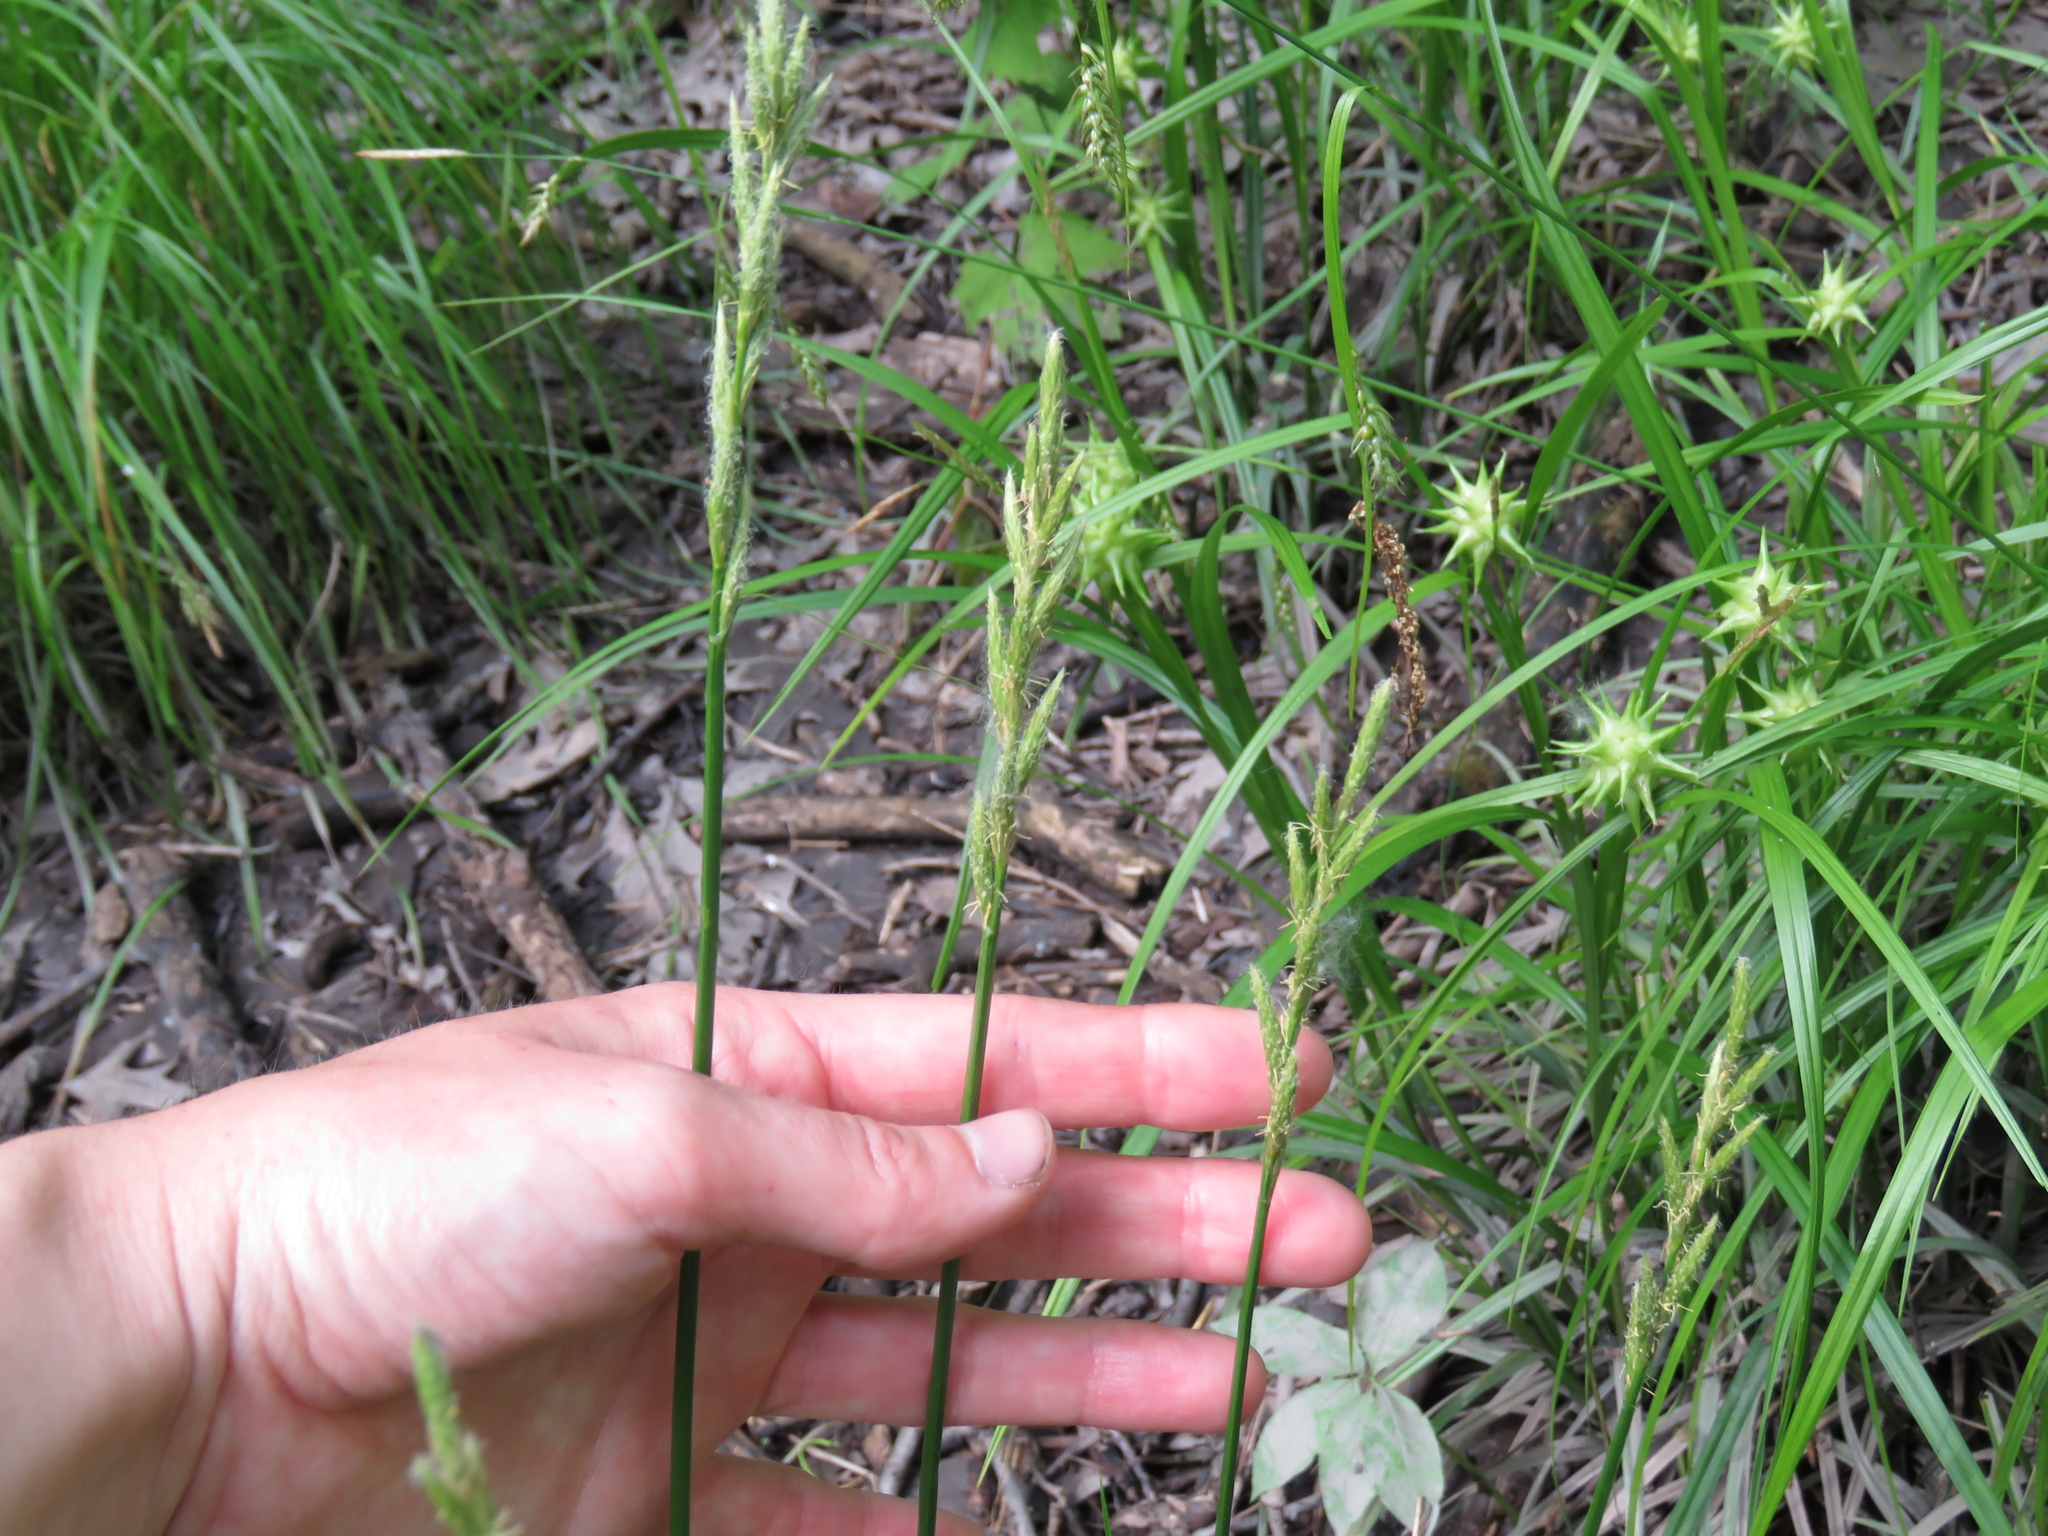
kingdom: Plantae
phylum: Tracheophyta
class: Liliopsida
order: Poales
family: Cyperaceae
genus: Carex
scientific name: Carex muskingumensis
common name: Muskingum sedge
